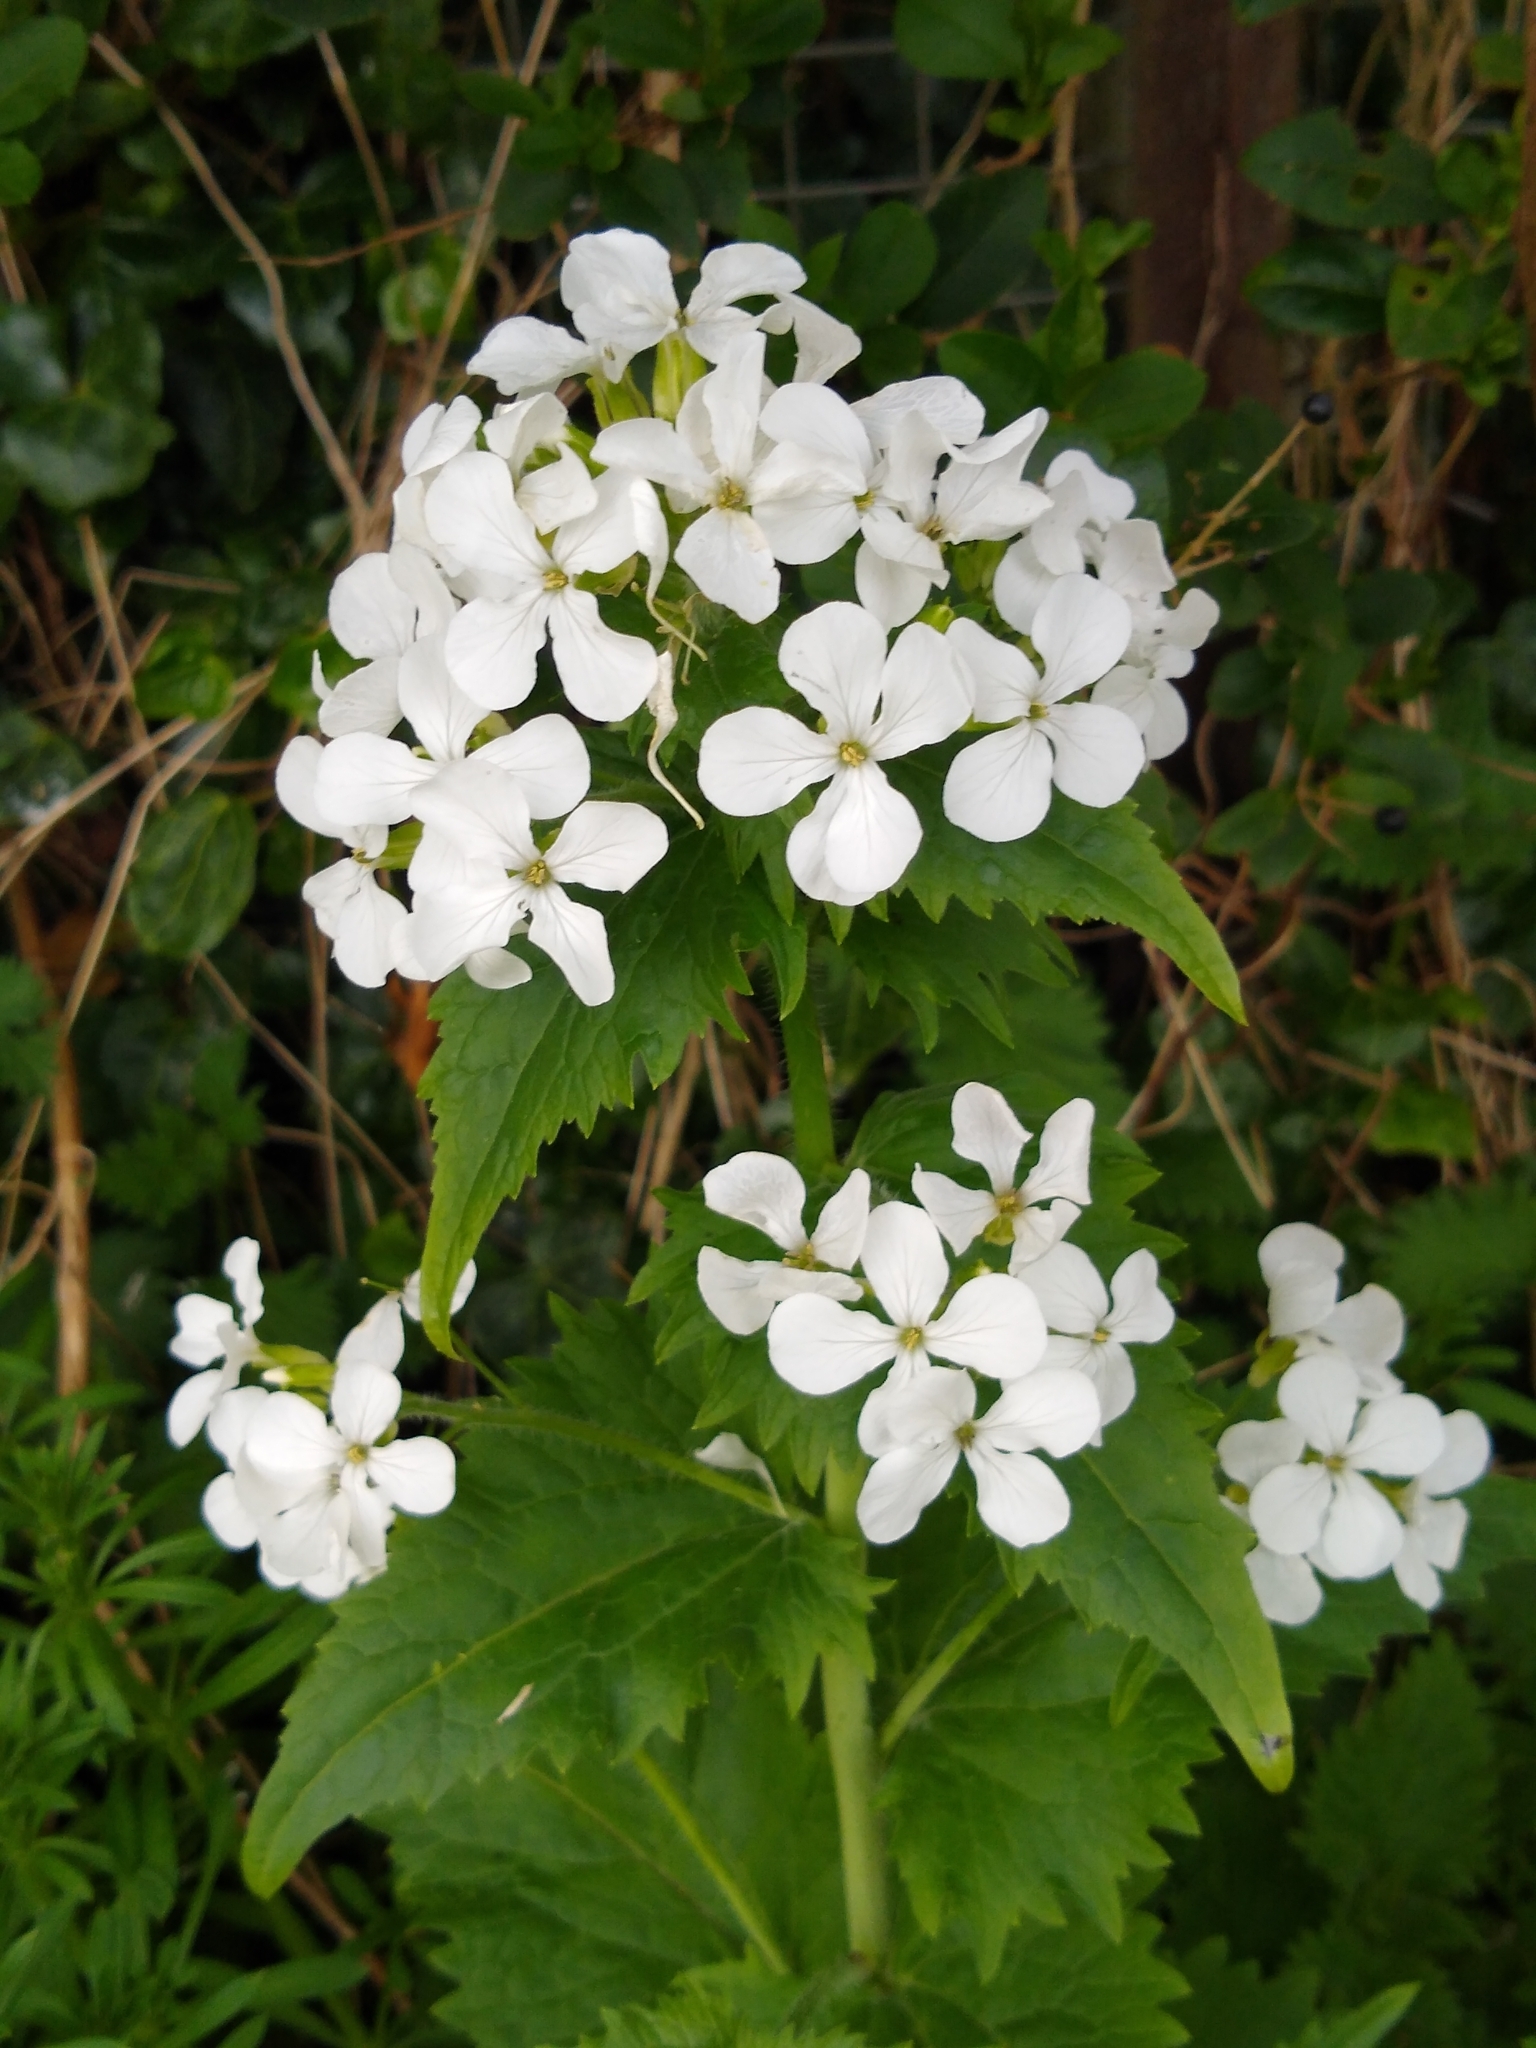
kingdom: Plantae
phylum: Tracheophyta
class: Magnoliopsida
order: Brassicales
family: Brassicaceae
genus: Lunaria
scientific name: Lunaria annua
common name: Honesty
